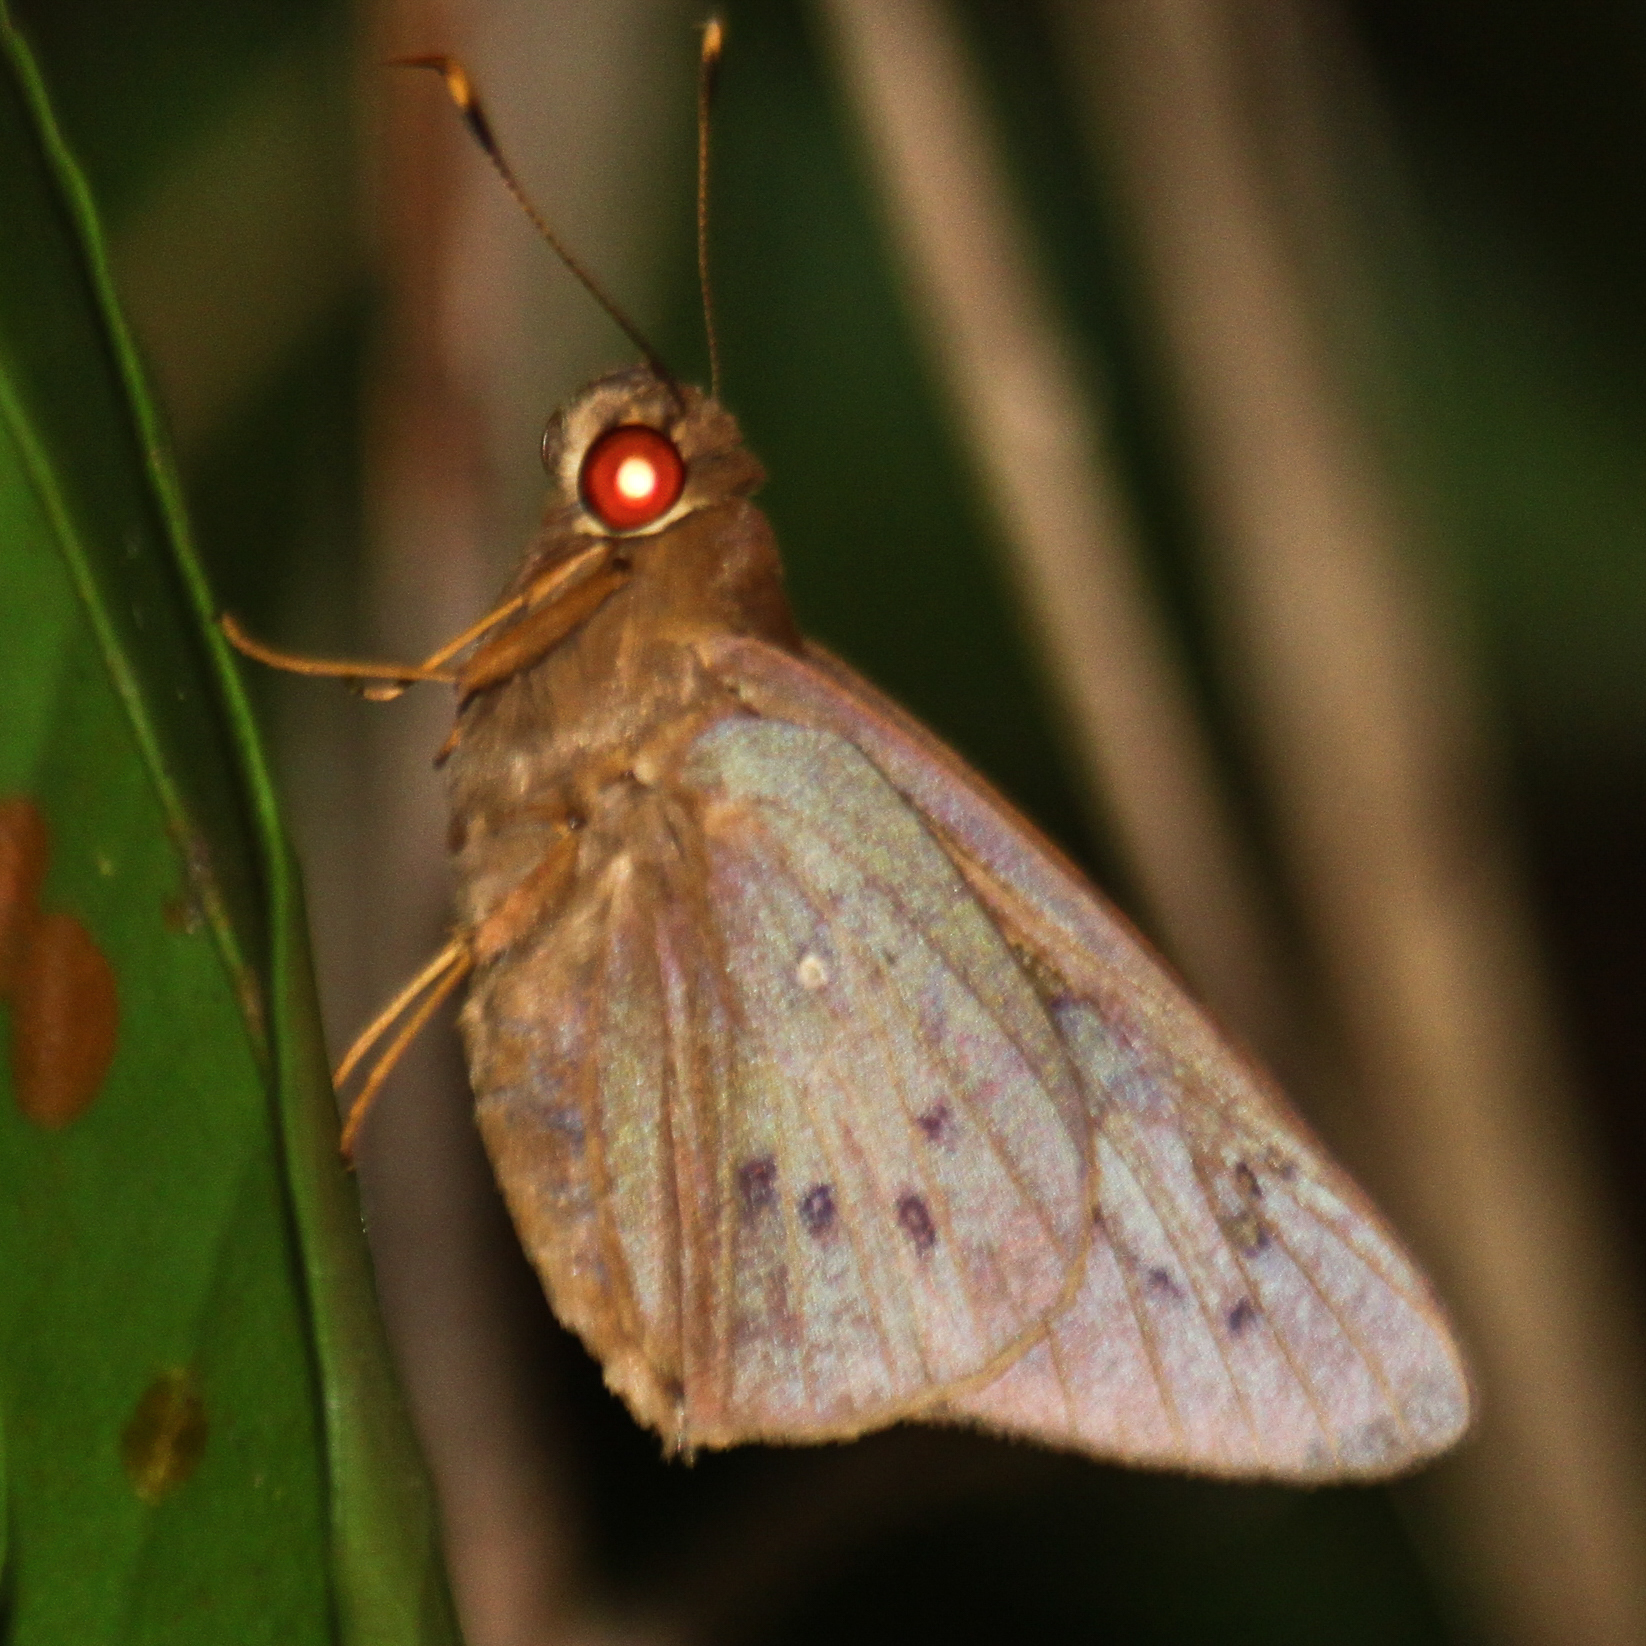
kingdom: Animalia
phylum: Arthropoda
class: Insecta
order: Lepidoptera
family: Hesperiidae
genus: Hidari
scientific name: Hidari irava
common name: Coconut skipper
